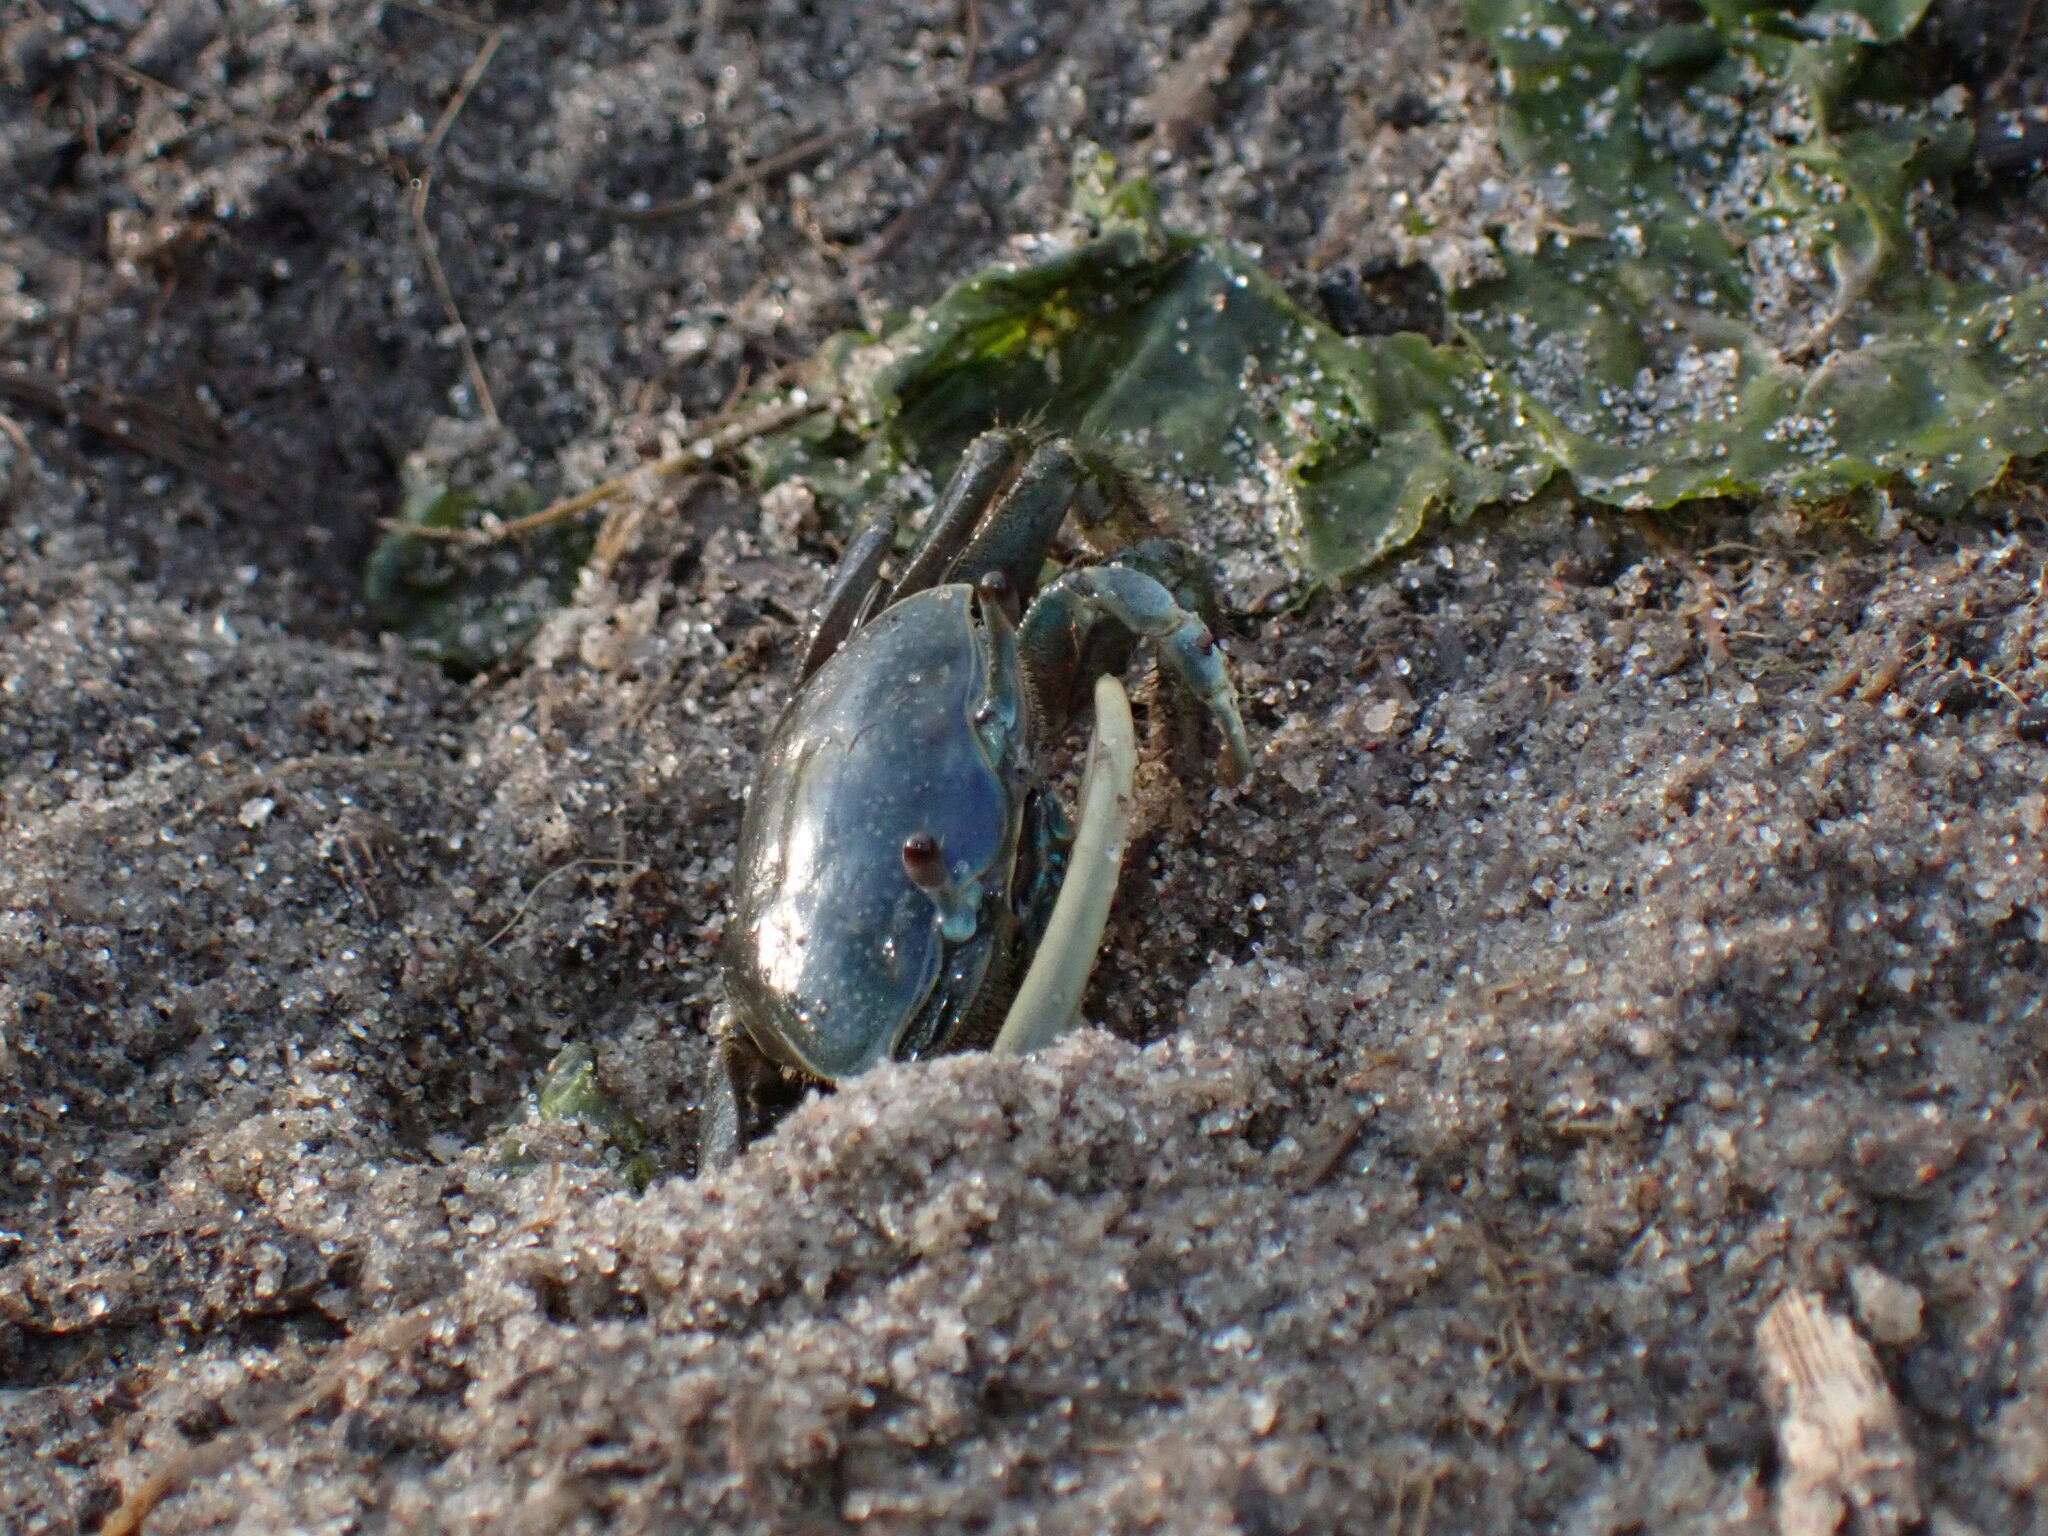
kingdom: Animalia
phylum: Arthropoda
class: Malacostraca
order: Decapoda
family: Ocypodidae
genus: Minuca
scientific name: Minuca pugnax
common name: Mud fiddler crab
